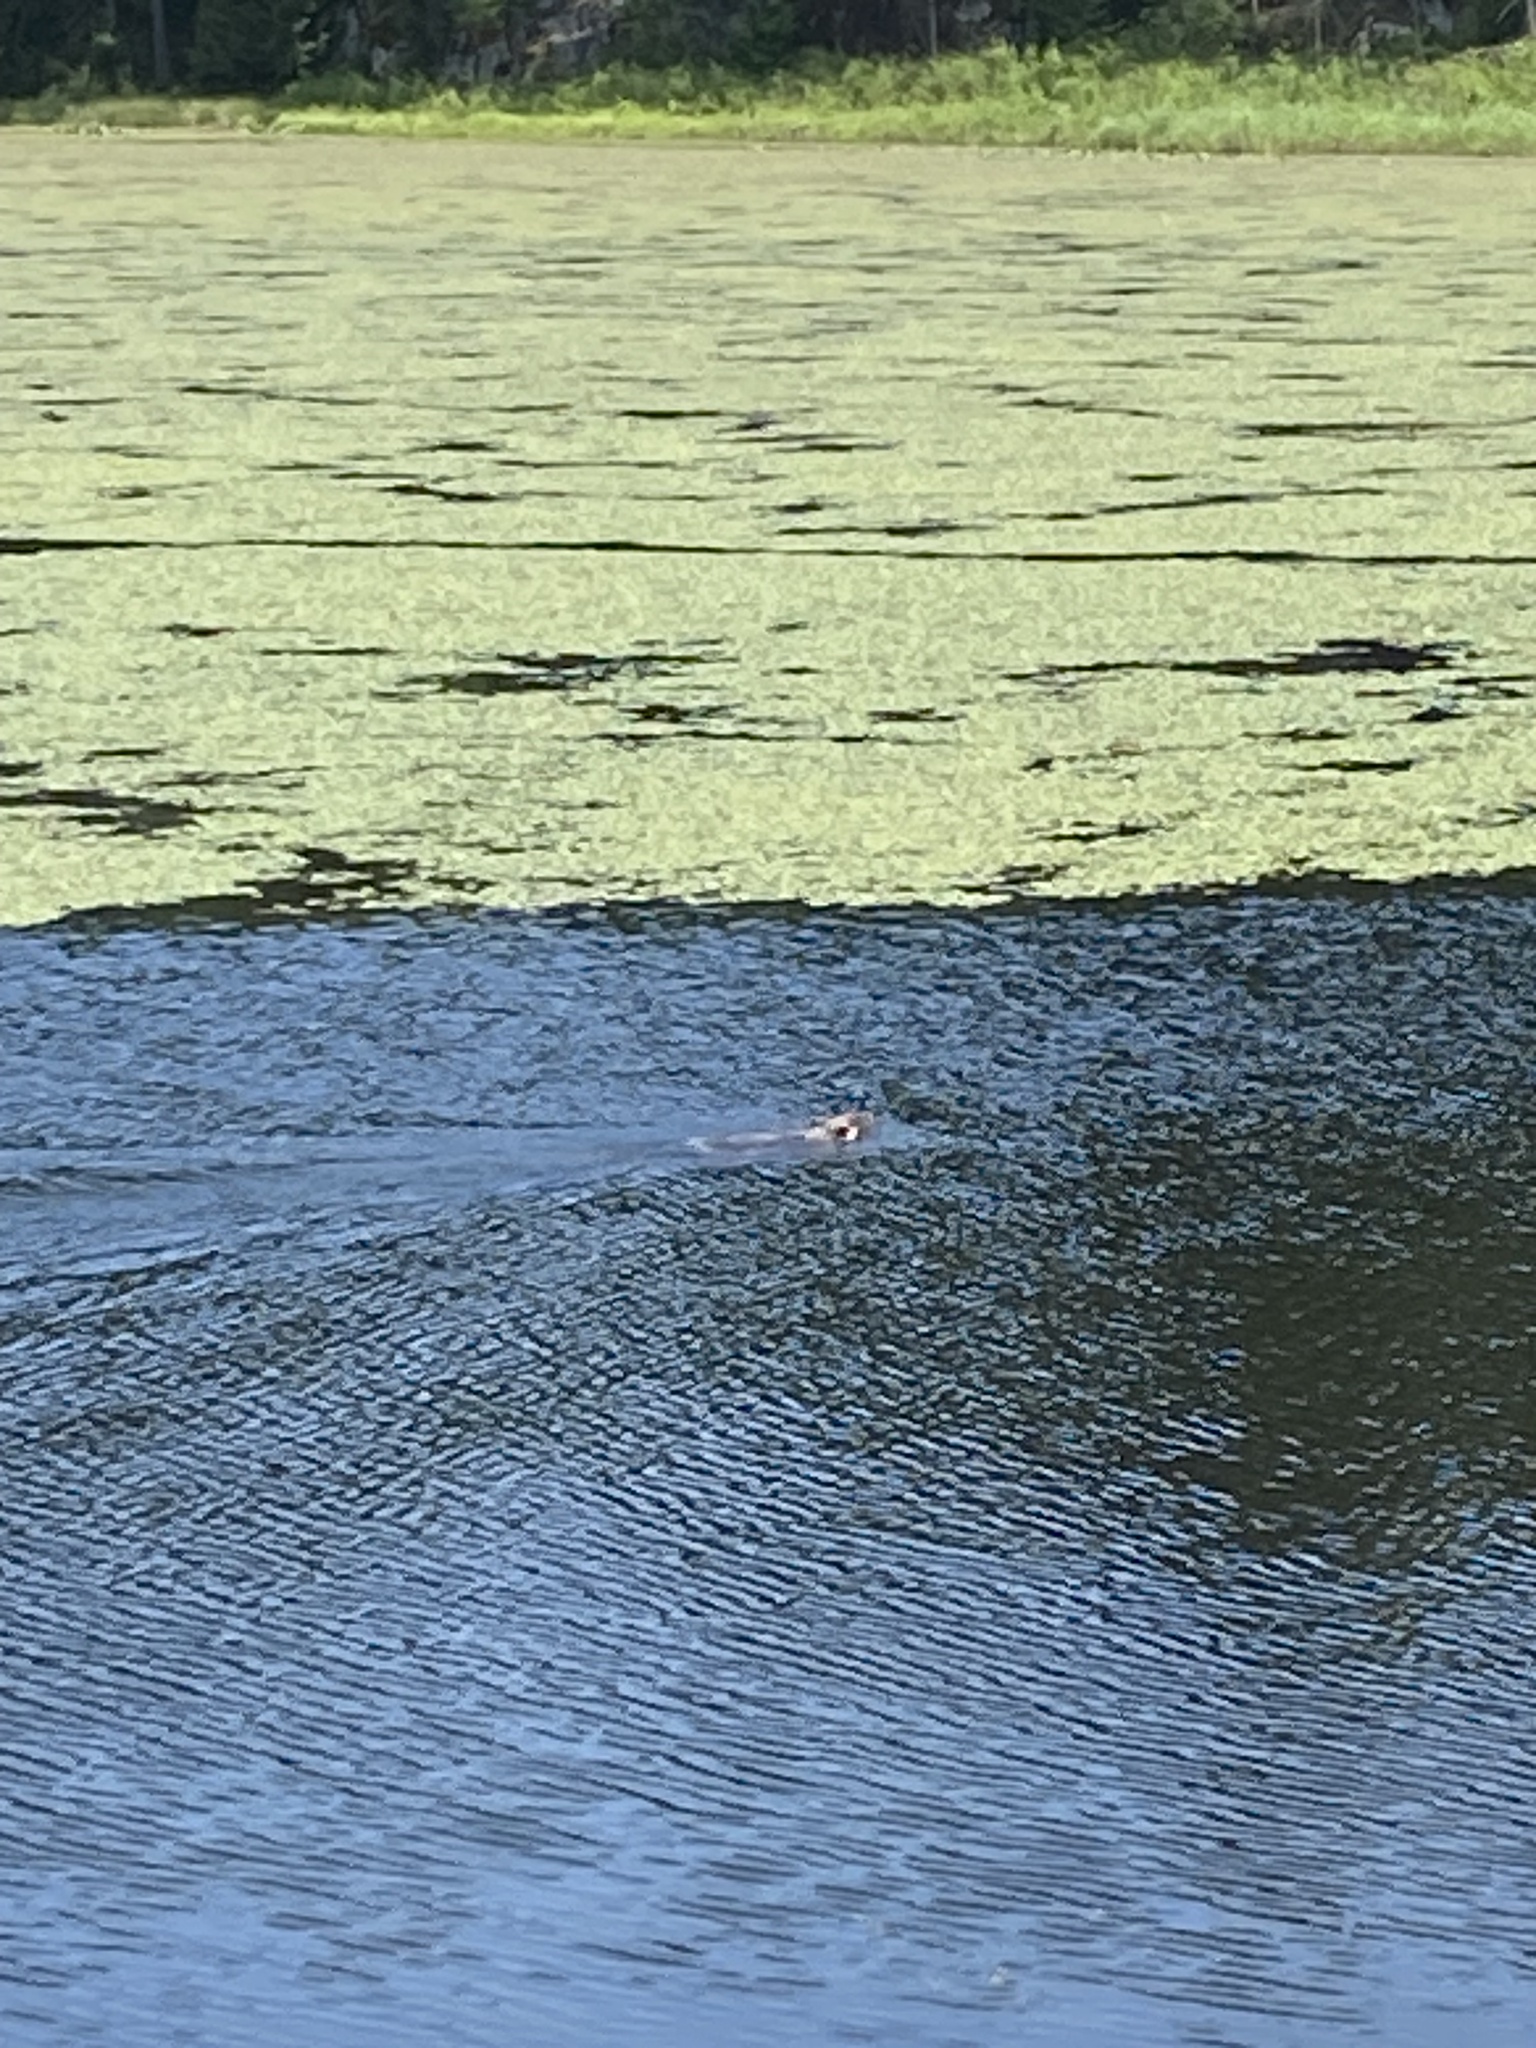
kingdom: Animalia
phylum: Chordata
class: Mammalia
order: Rodentia
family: Castoridae
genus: Castor
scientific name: Castor canadensis
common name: American beaver
